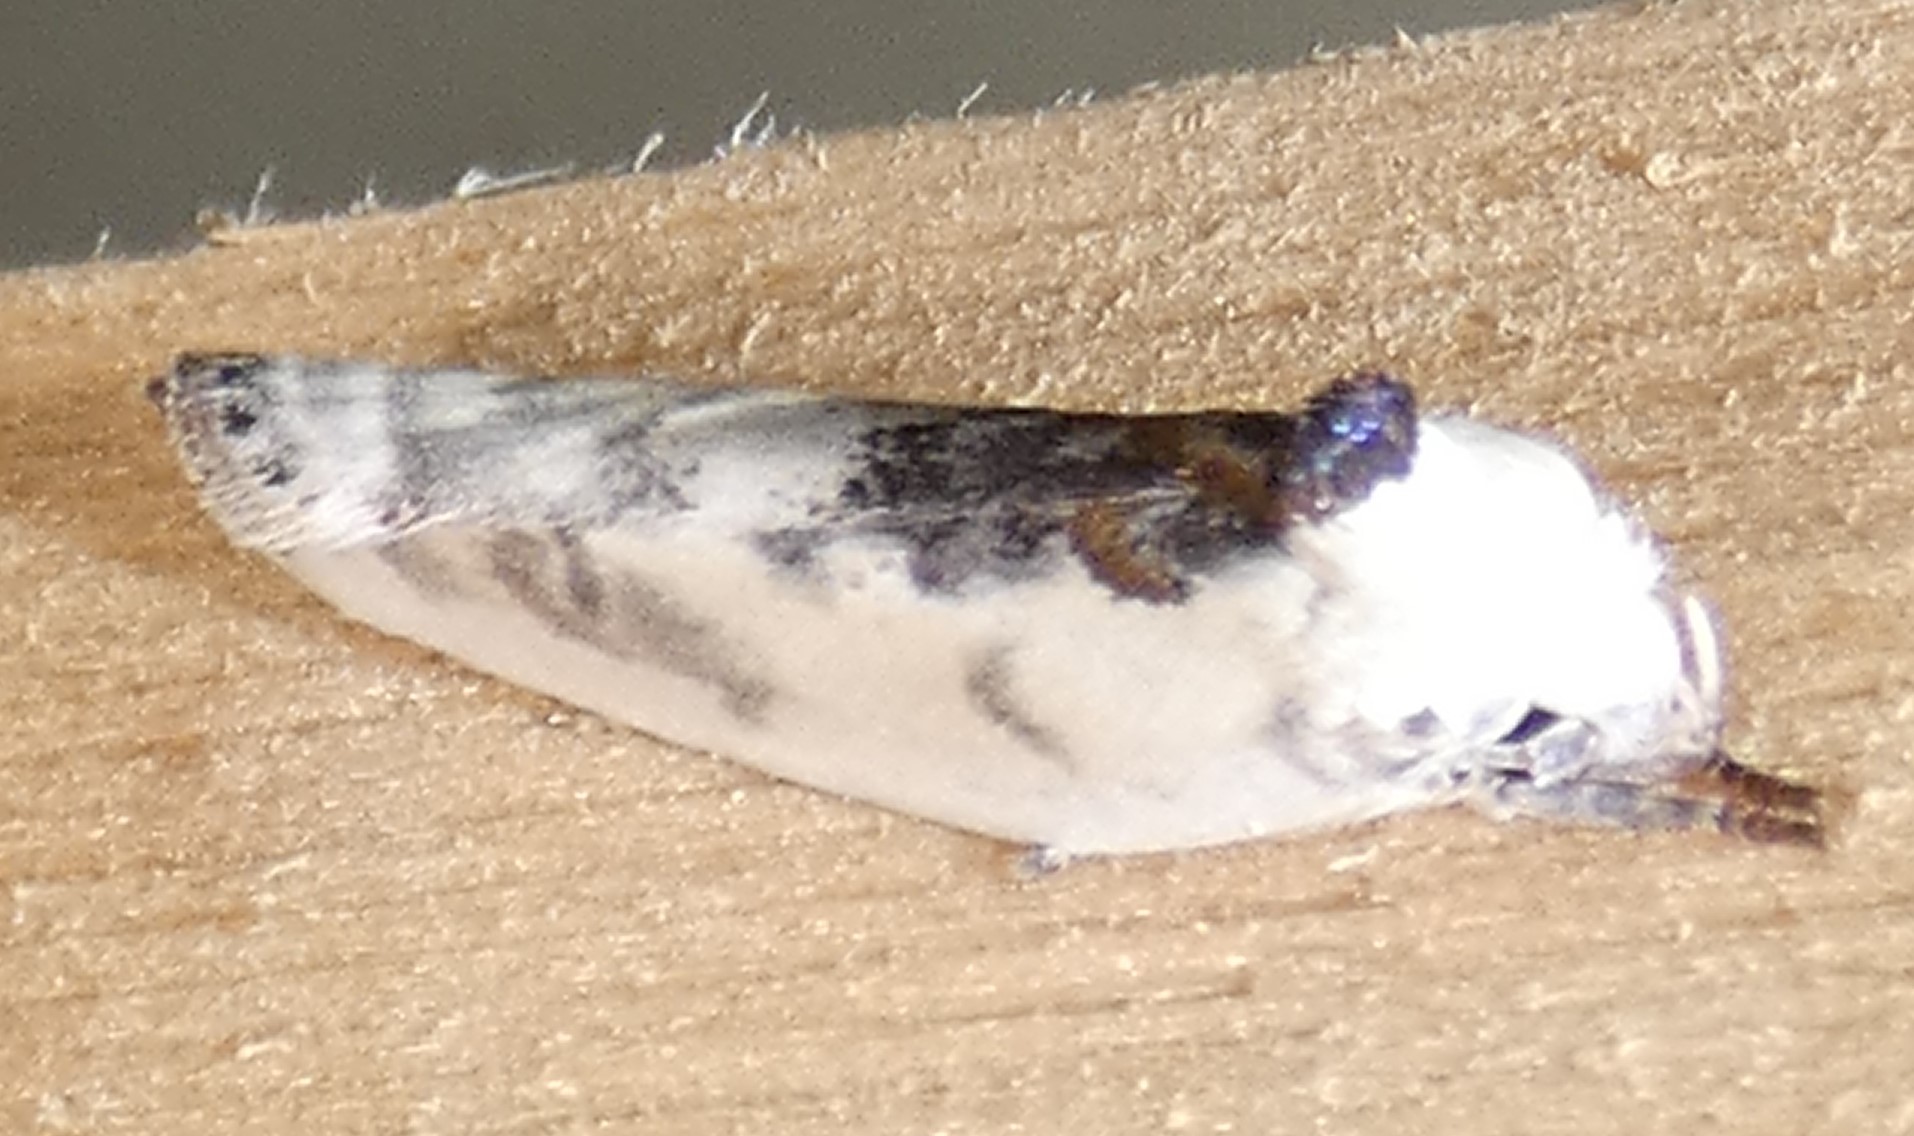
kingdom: Animalia
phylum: Arthropoda
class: Insecta
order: Lepidoptera
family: Depressariidae
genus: Antaeotricha
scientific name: Antaeotricha schlaegeri
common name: Schlaeger's fruitworm moth
